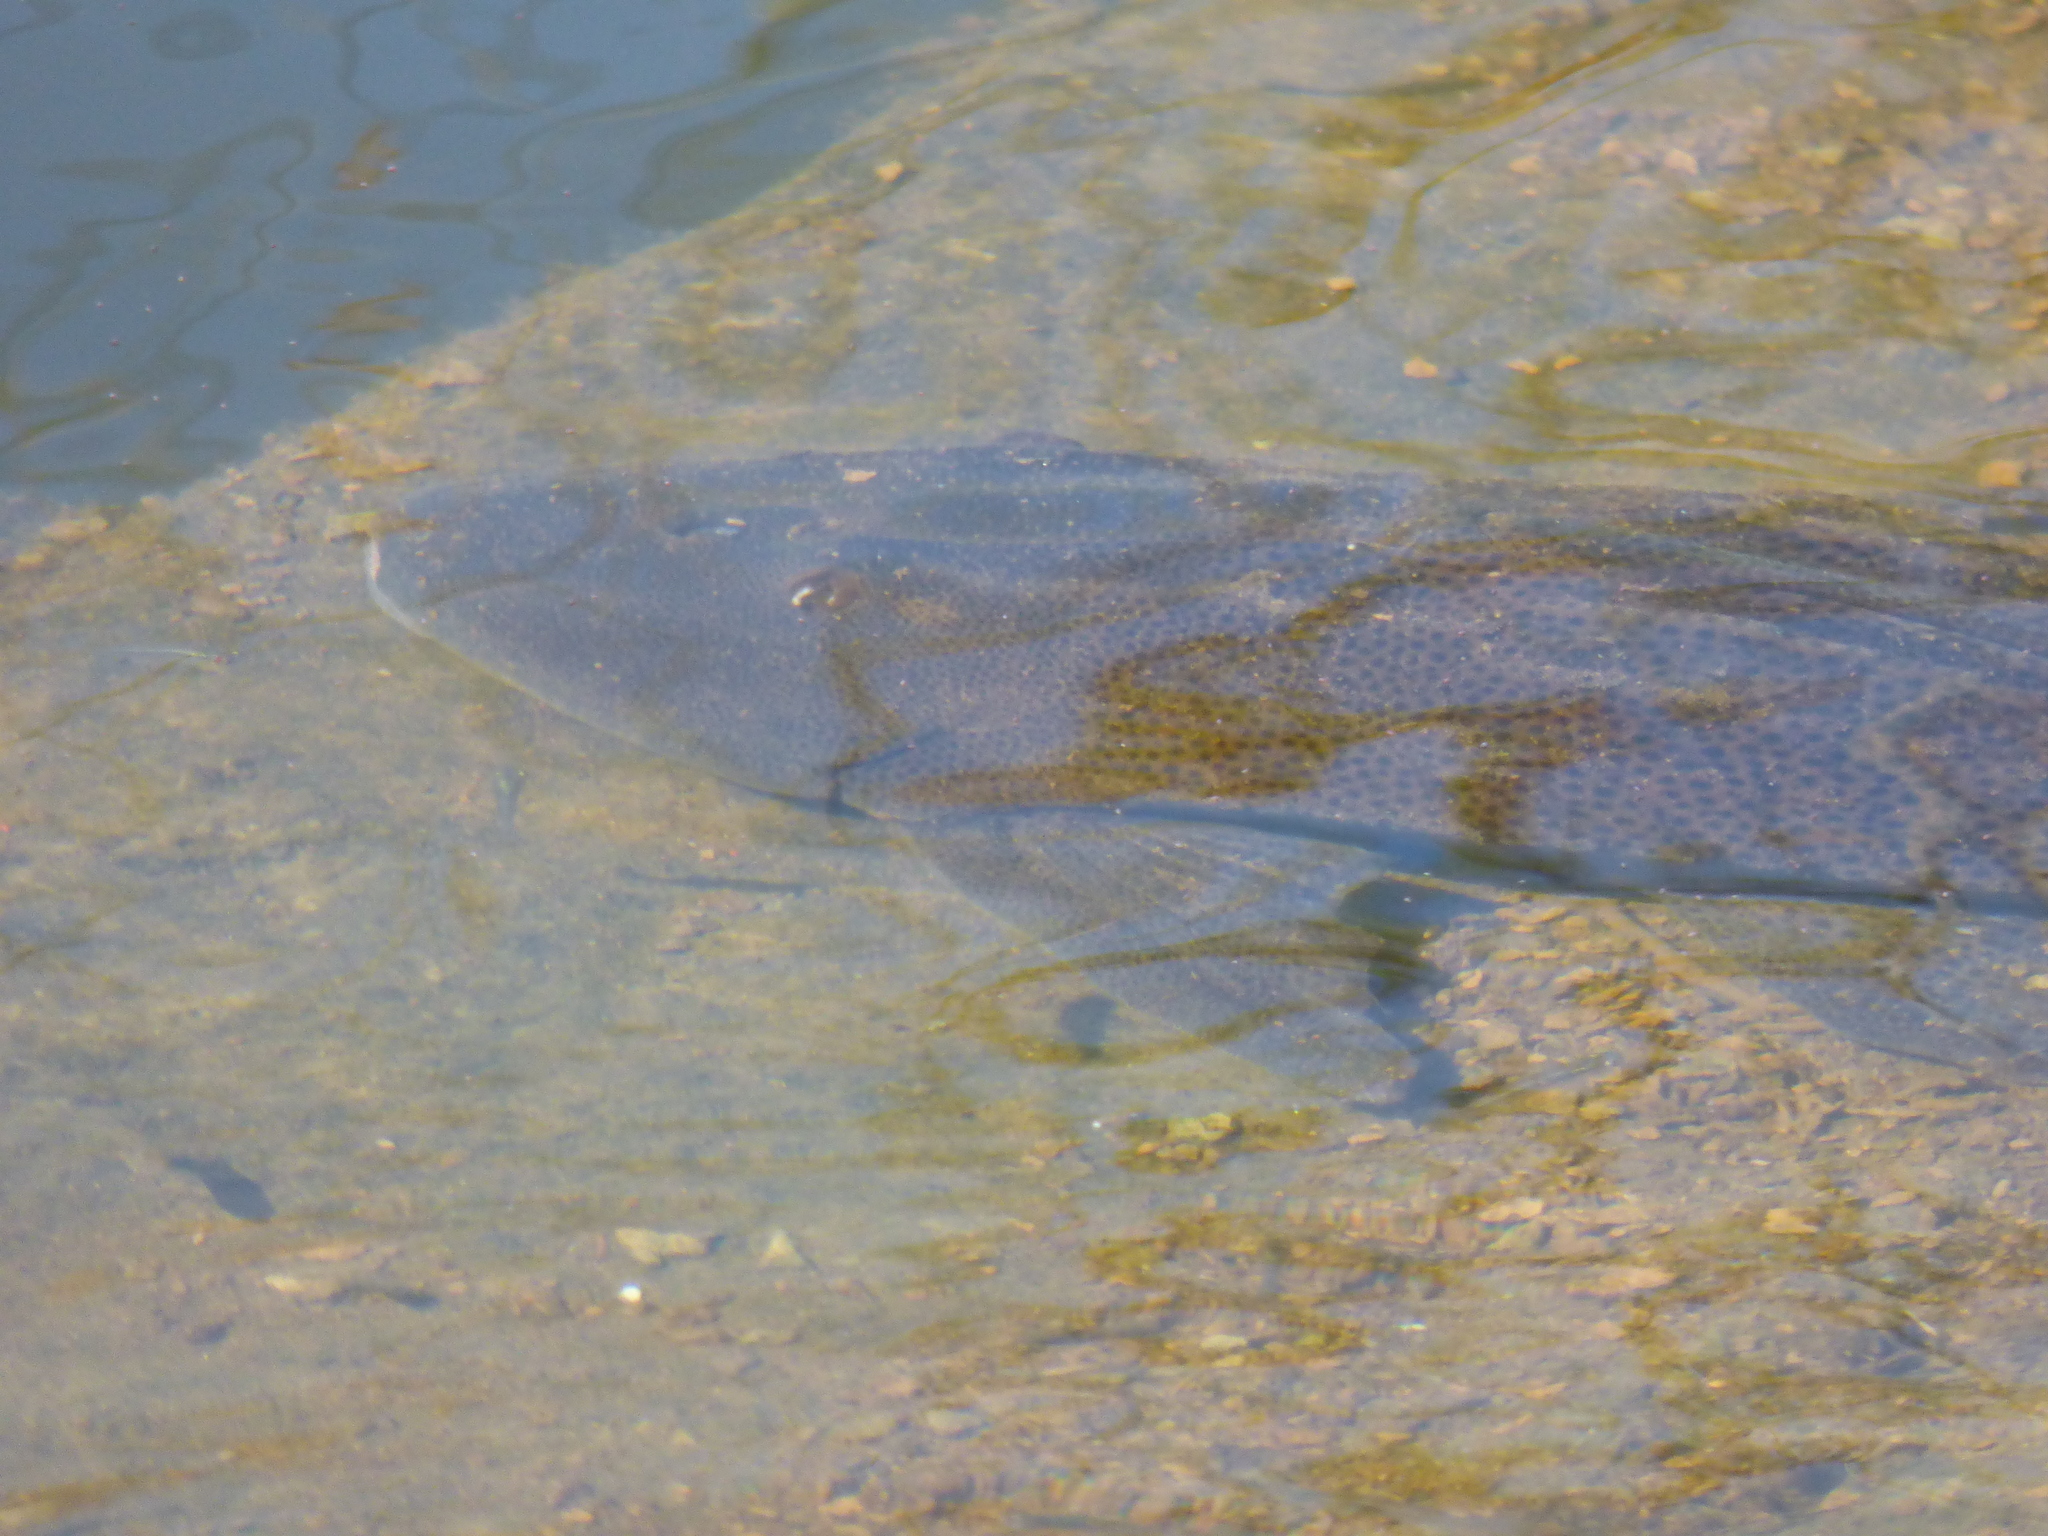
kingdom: Animalia
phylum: Chordata
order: Siluriformes
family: Loricariidae
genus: Hypostomus
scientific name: Hypostomus commersoni
